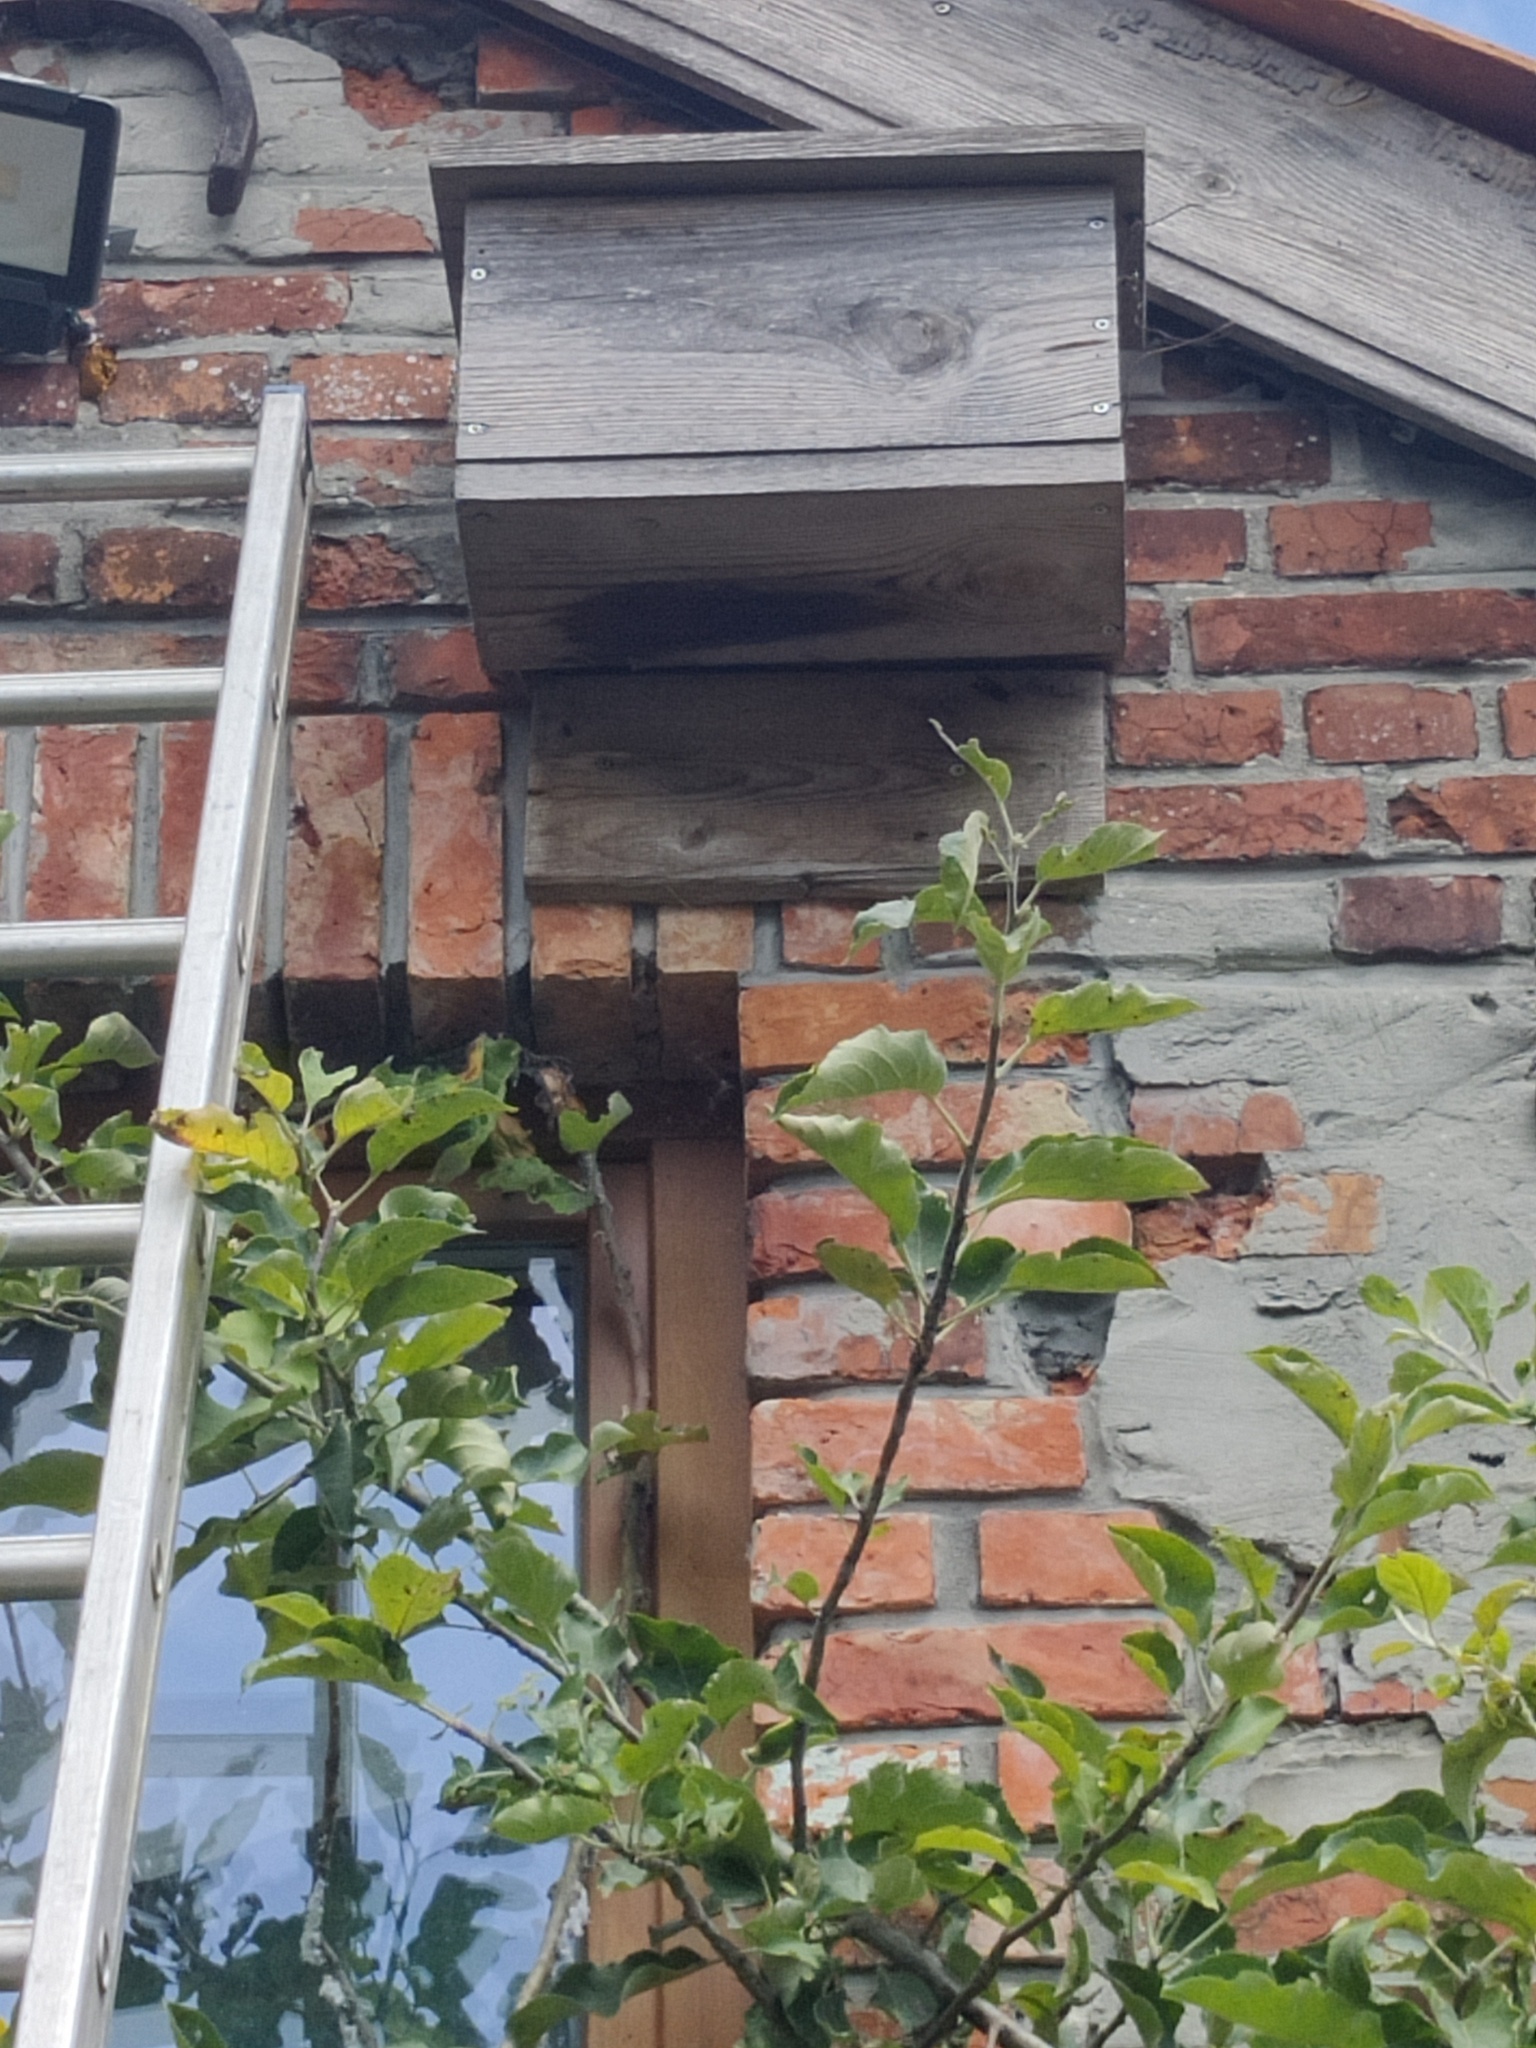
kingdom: Animalia
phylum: Arthropoda
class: Insecta
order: Hymenoptera
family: Vespidae
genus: Vespa
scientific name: Vespa velutina
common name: Asian hornet
